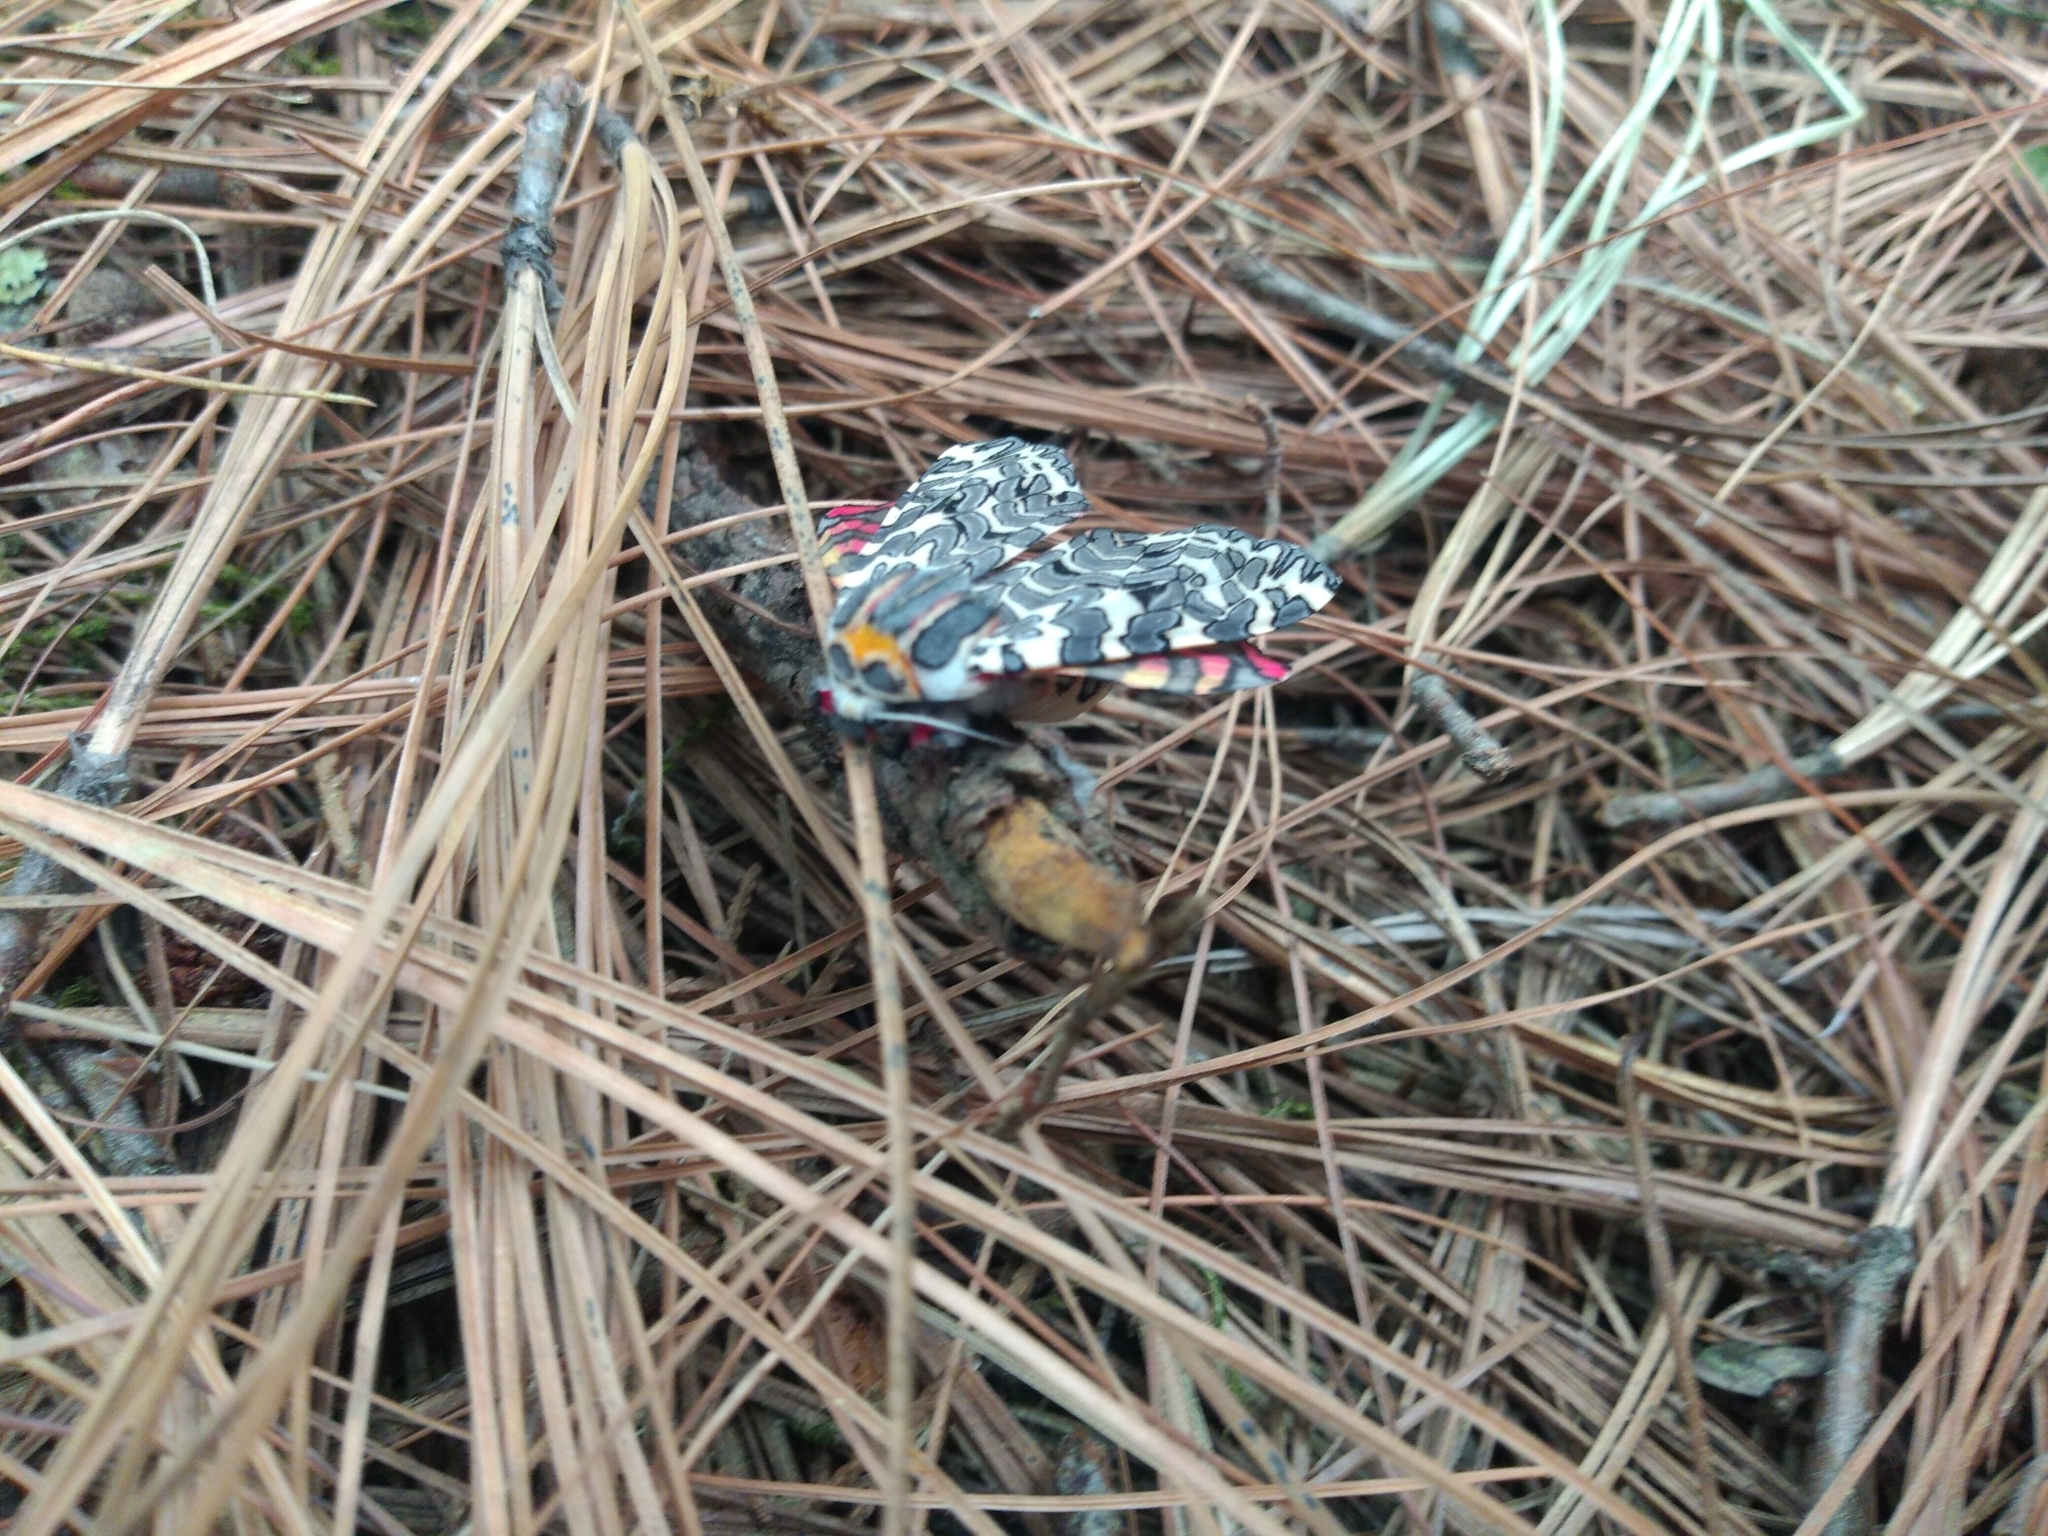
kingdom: Animalia
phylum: Arthropoda
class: Insecta
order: Lepidoptera
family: Erebidae
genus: Arachnis
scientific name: Arachnis picta
